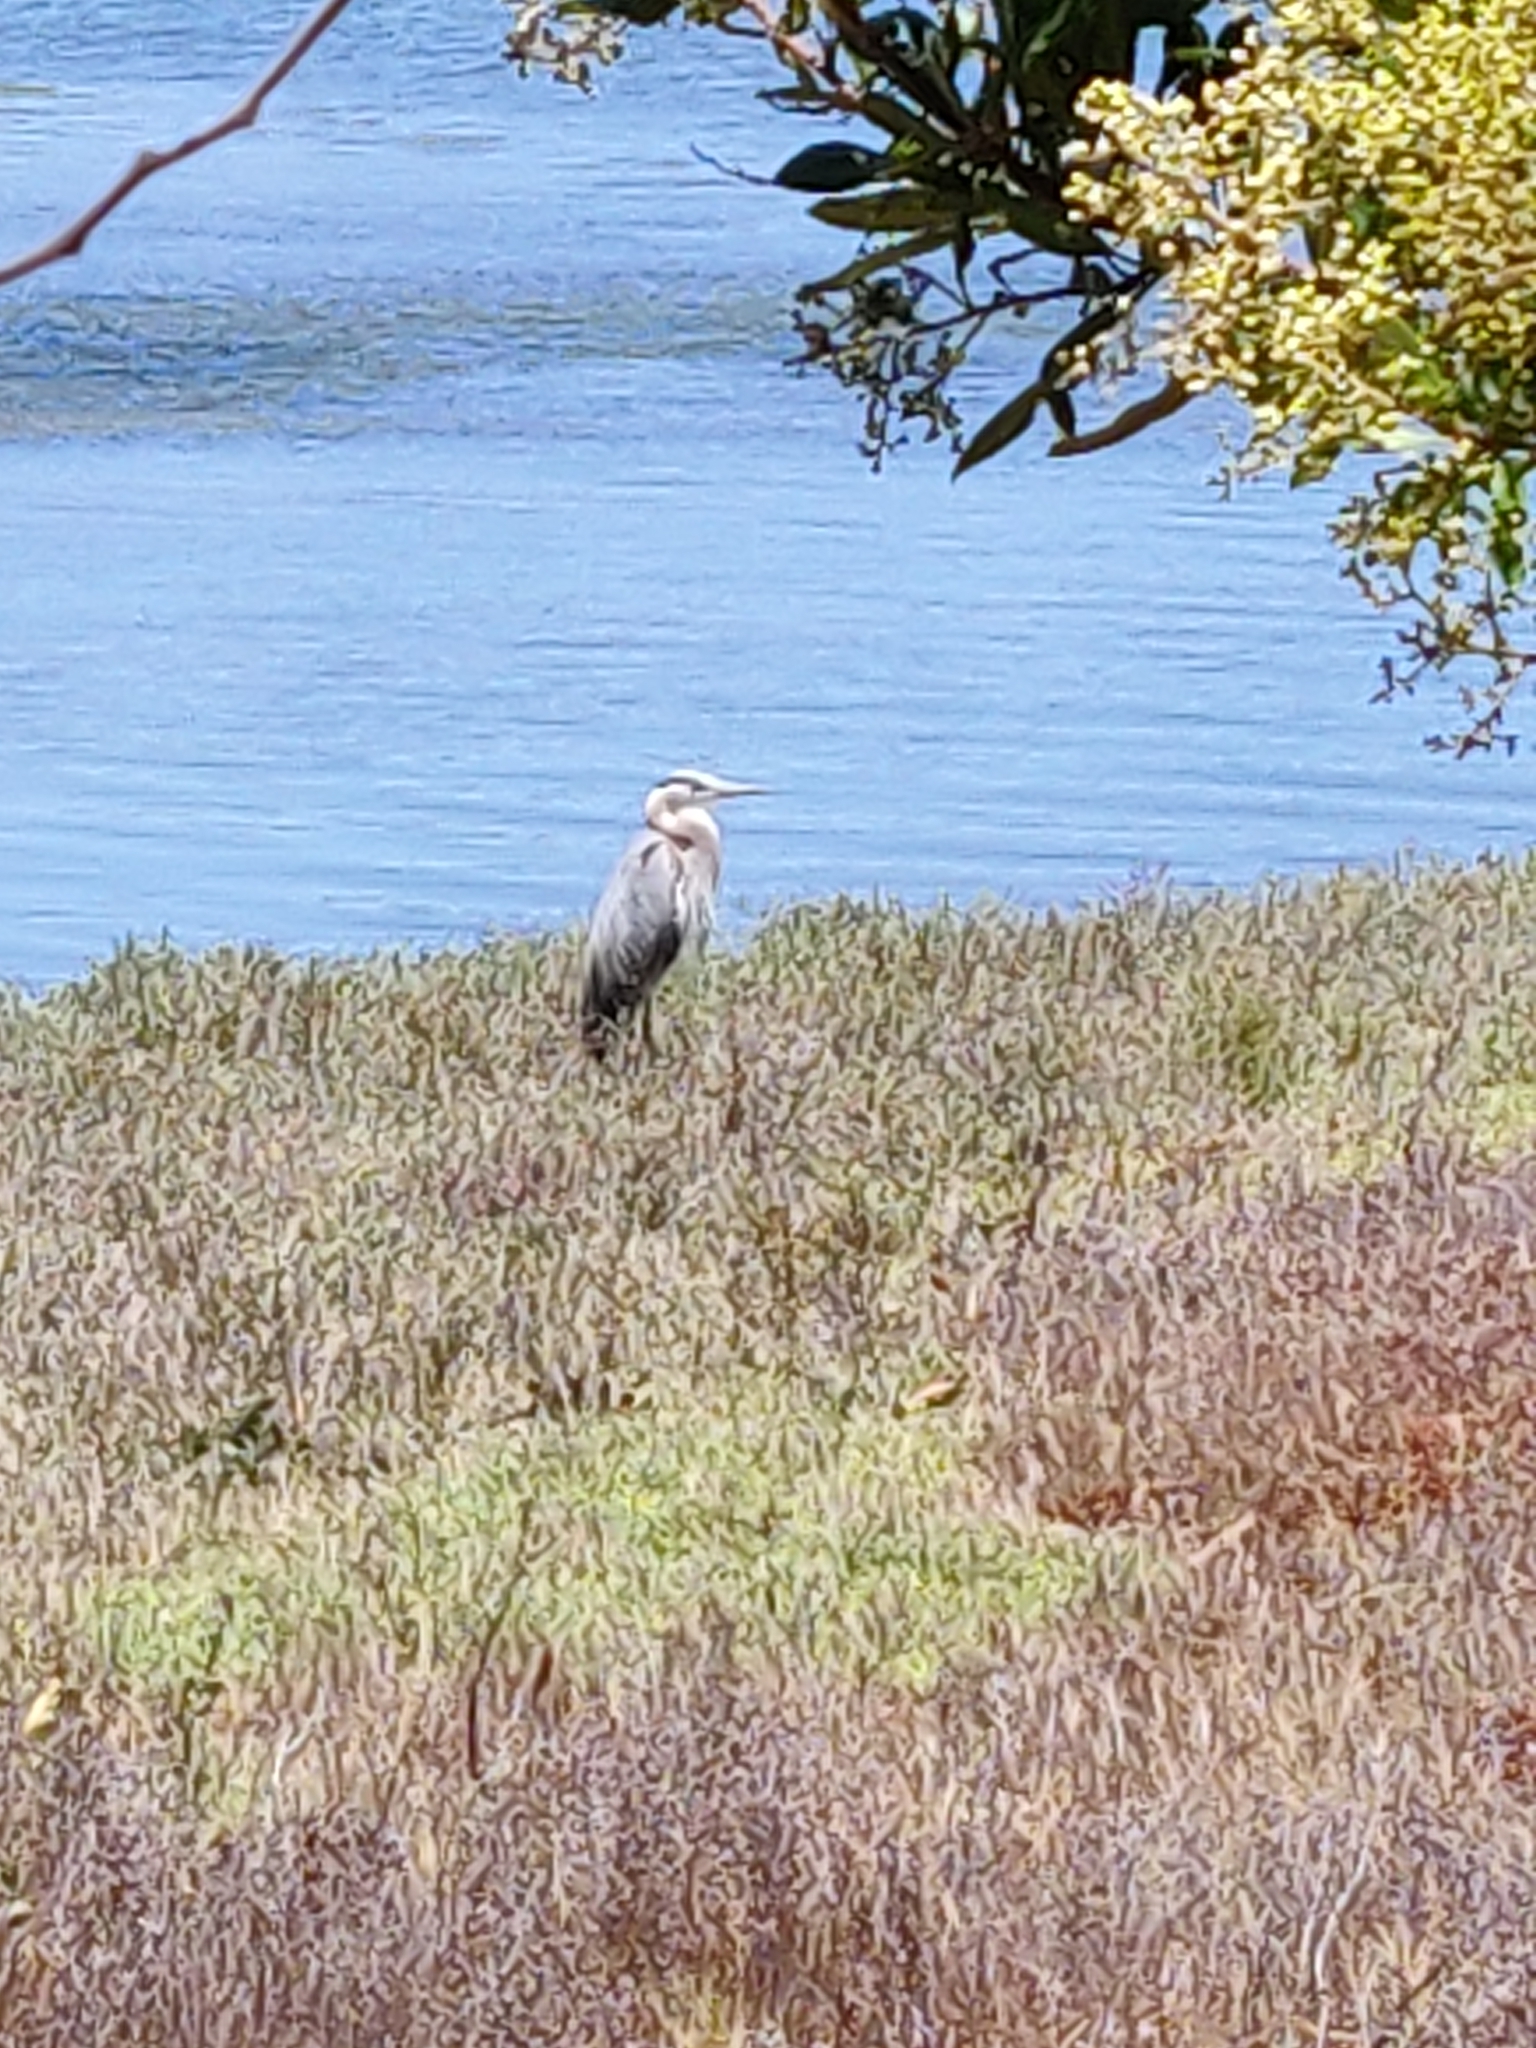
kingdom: Animalia
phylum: Chordata
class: Aves
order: Pelecaniformes
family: Ardeidae
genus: Ardea
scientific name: Ardea herodias
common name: Great blue heron
